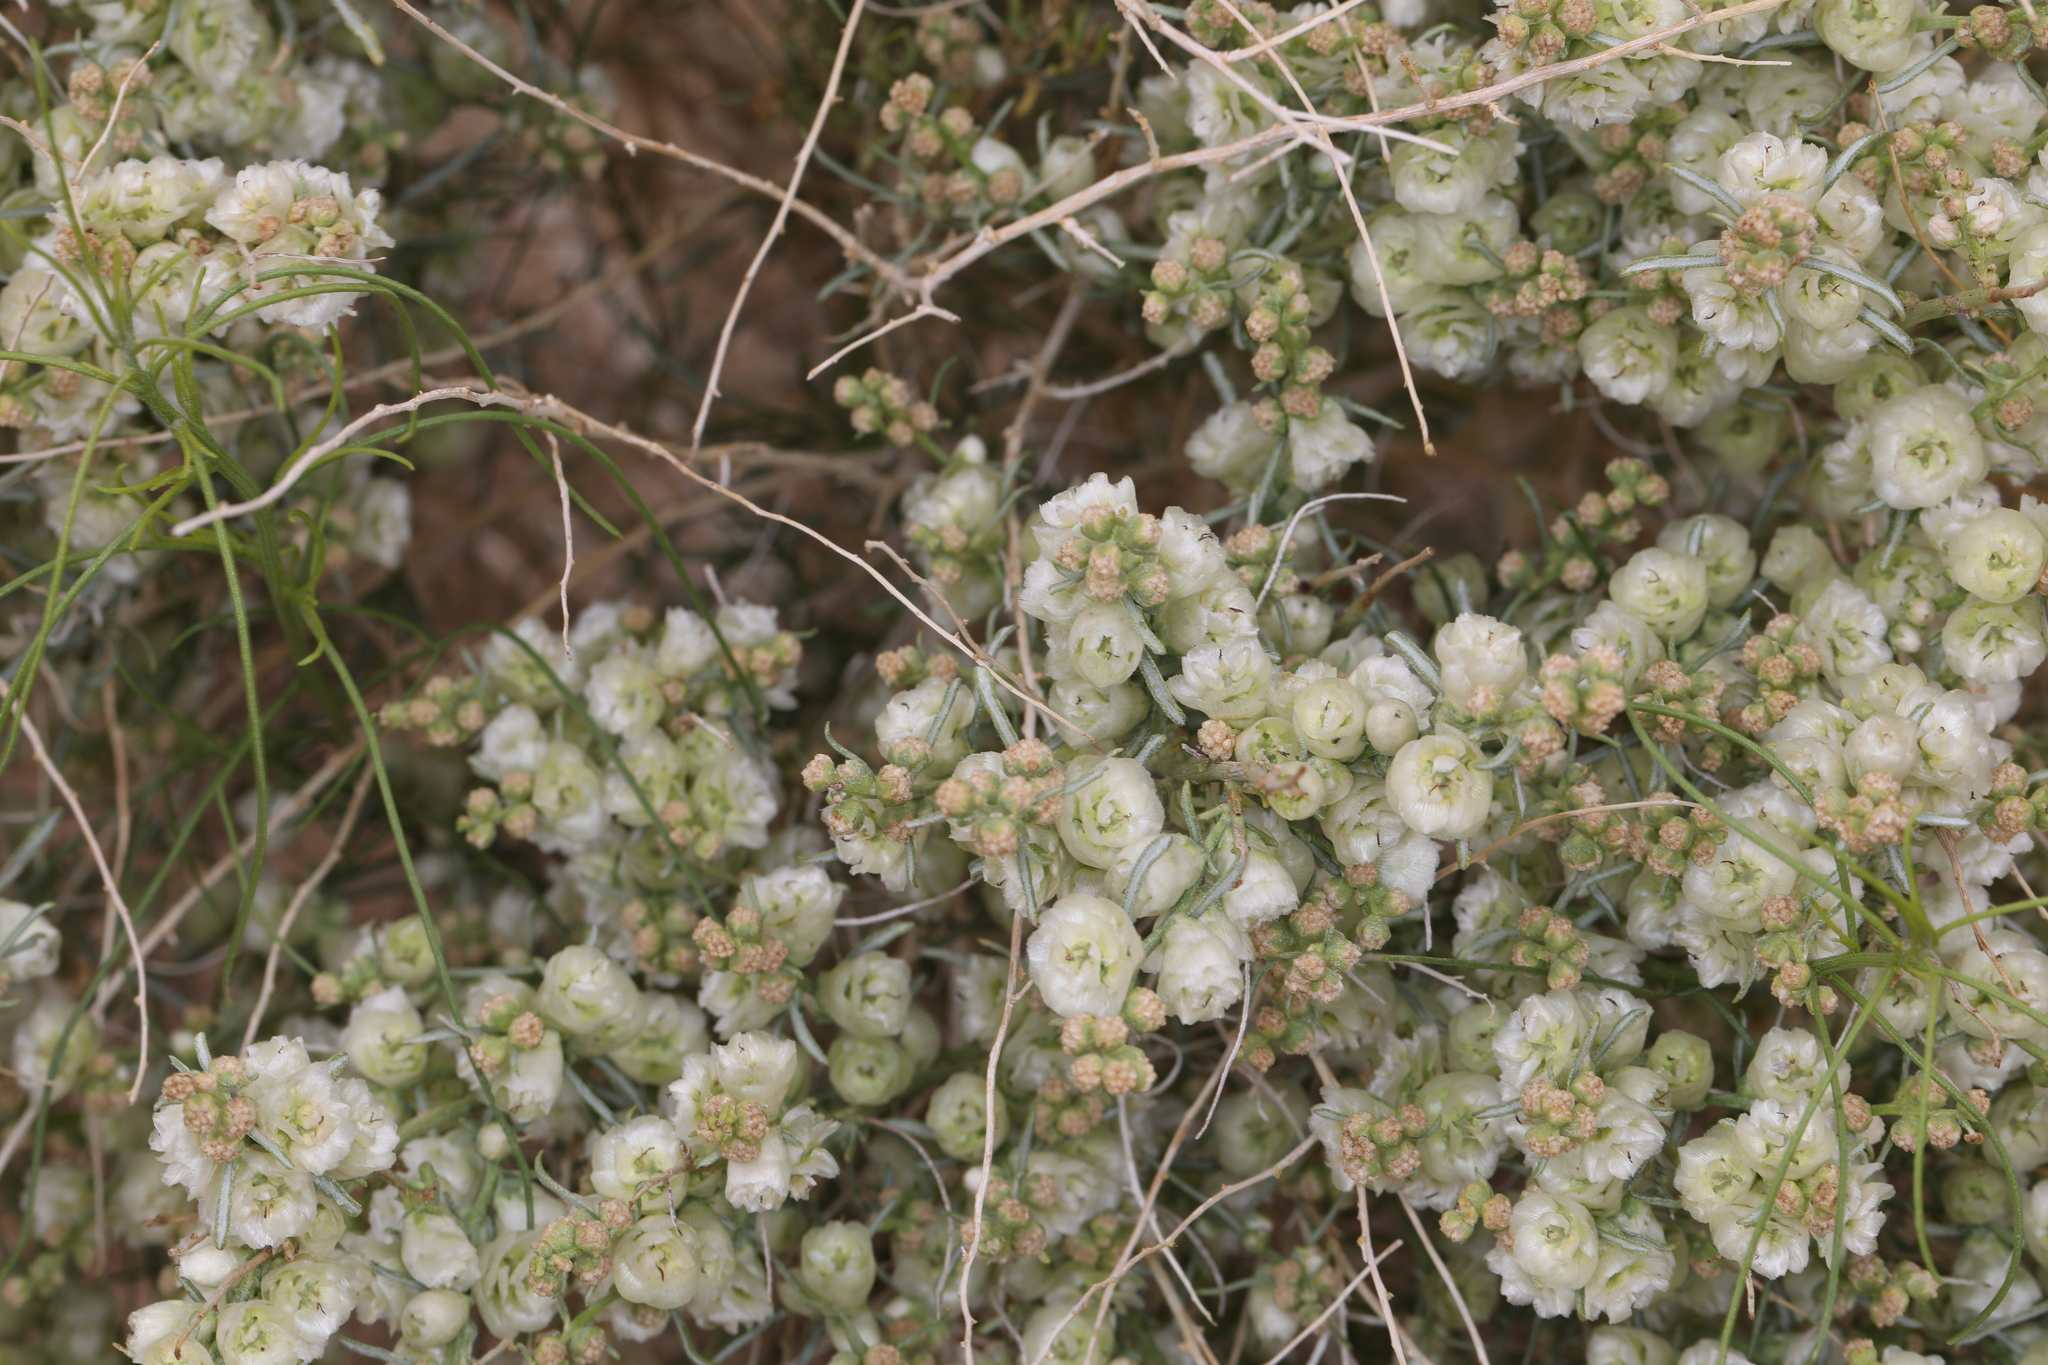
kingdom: Plantae
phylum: Tracheophyta
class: Magnoliopsida
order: Asterales
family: Asteraceae
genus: Ambrosia
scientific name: Ambrosia salsola
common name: Burrobrush
